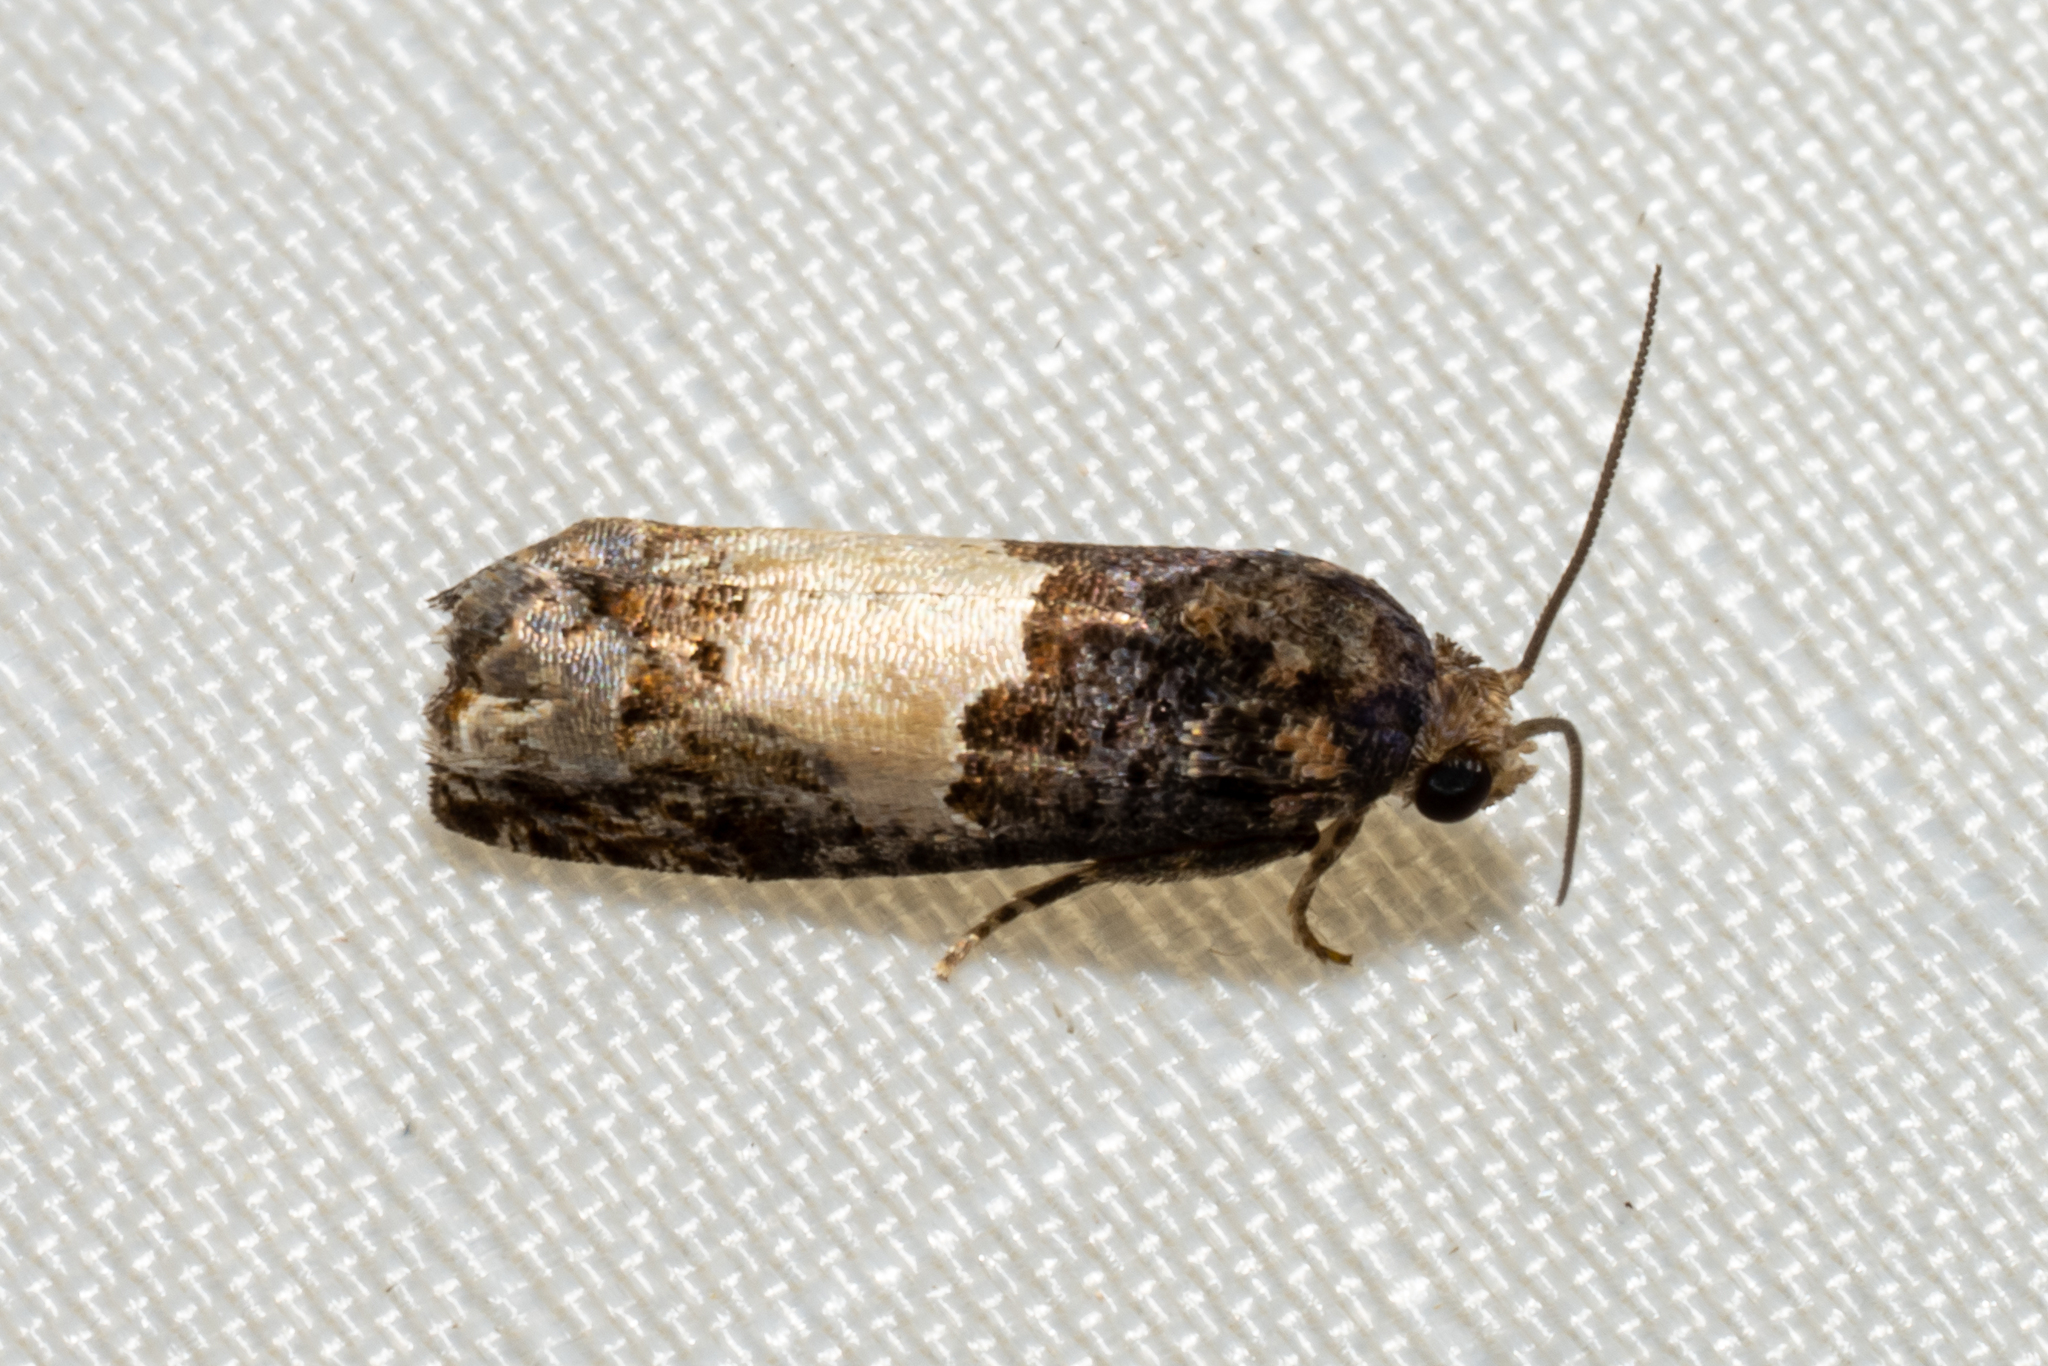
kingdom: Animalia
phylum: Arthropoda
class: Insecta
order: Lepidoptera
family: Tortricidae
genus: Epiblema
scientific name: Epiblema glenni
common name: Glenn's epiblema
